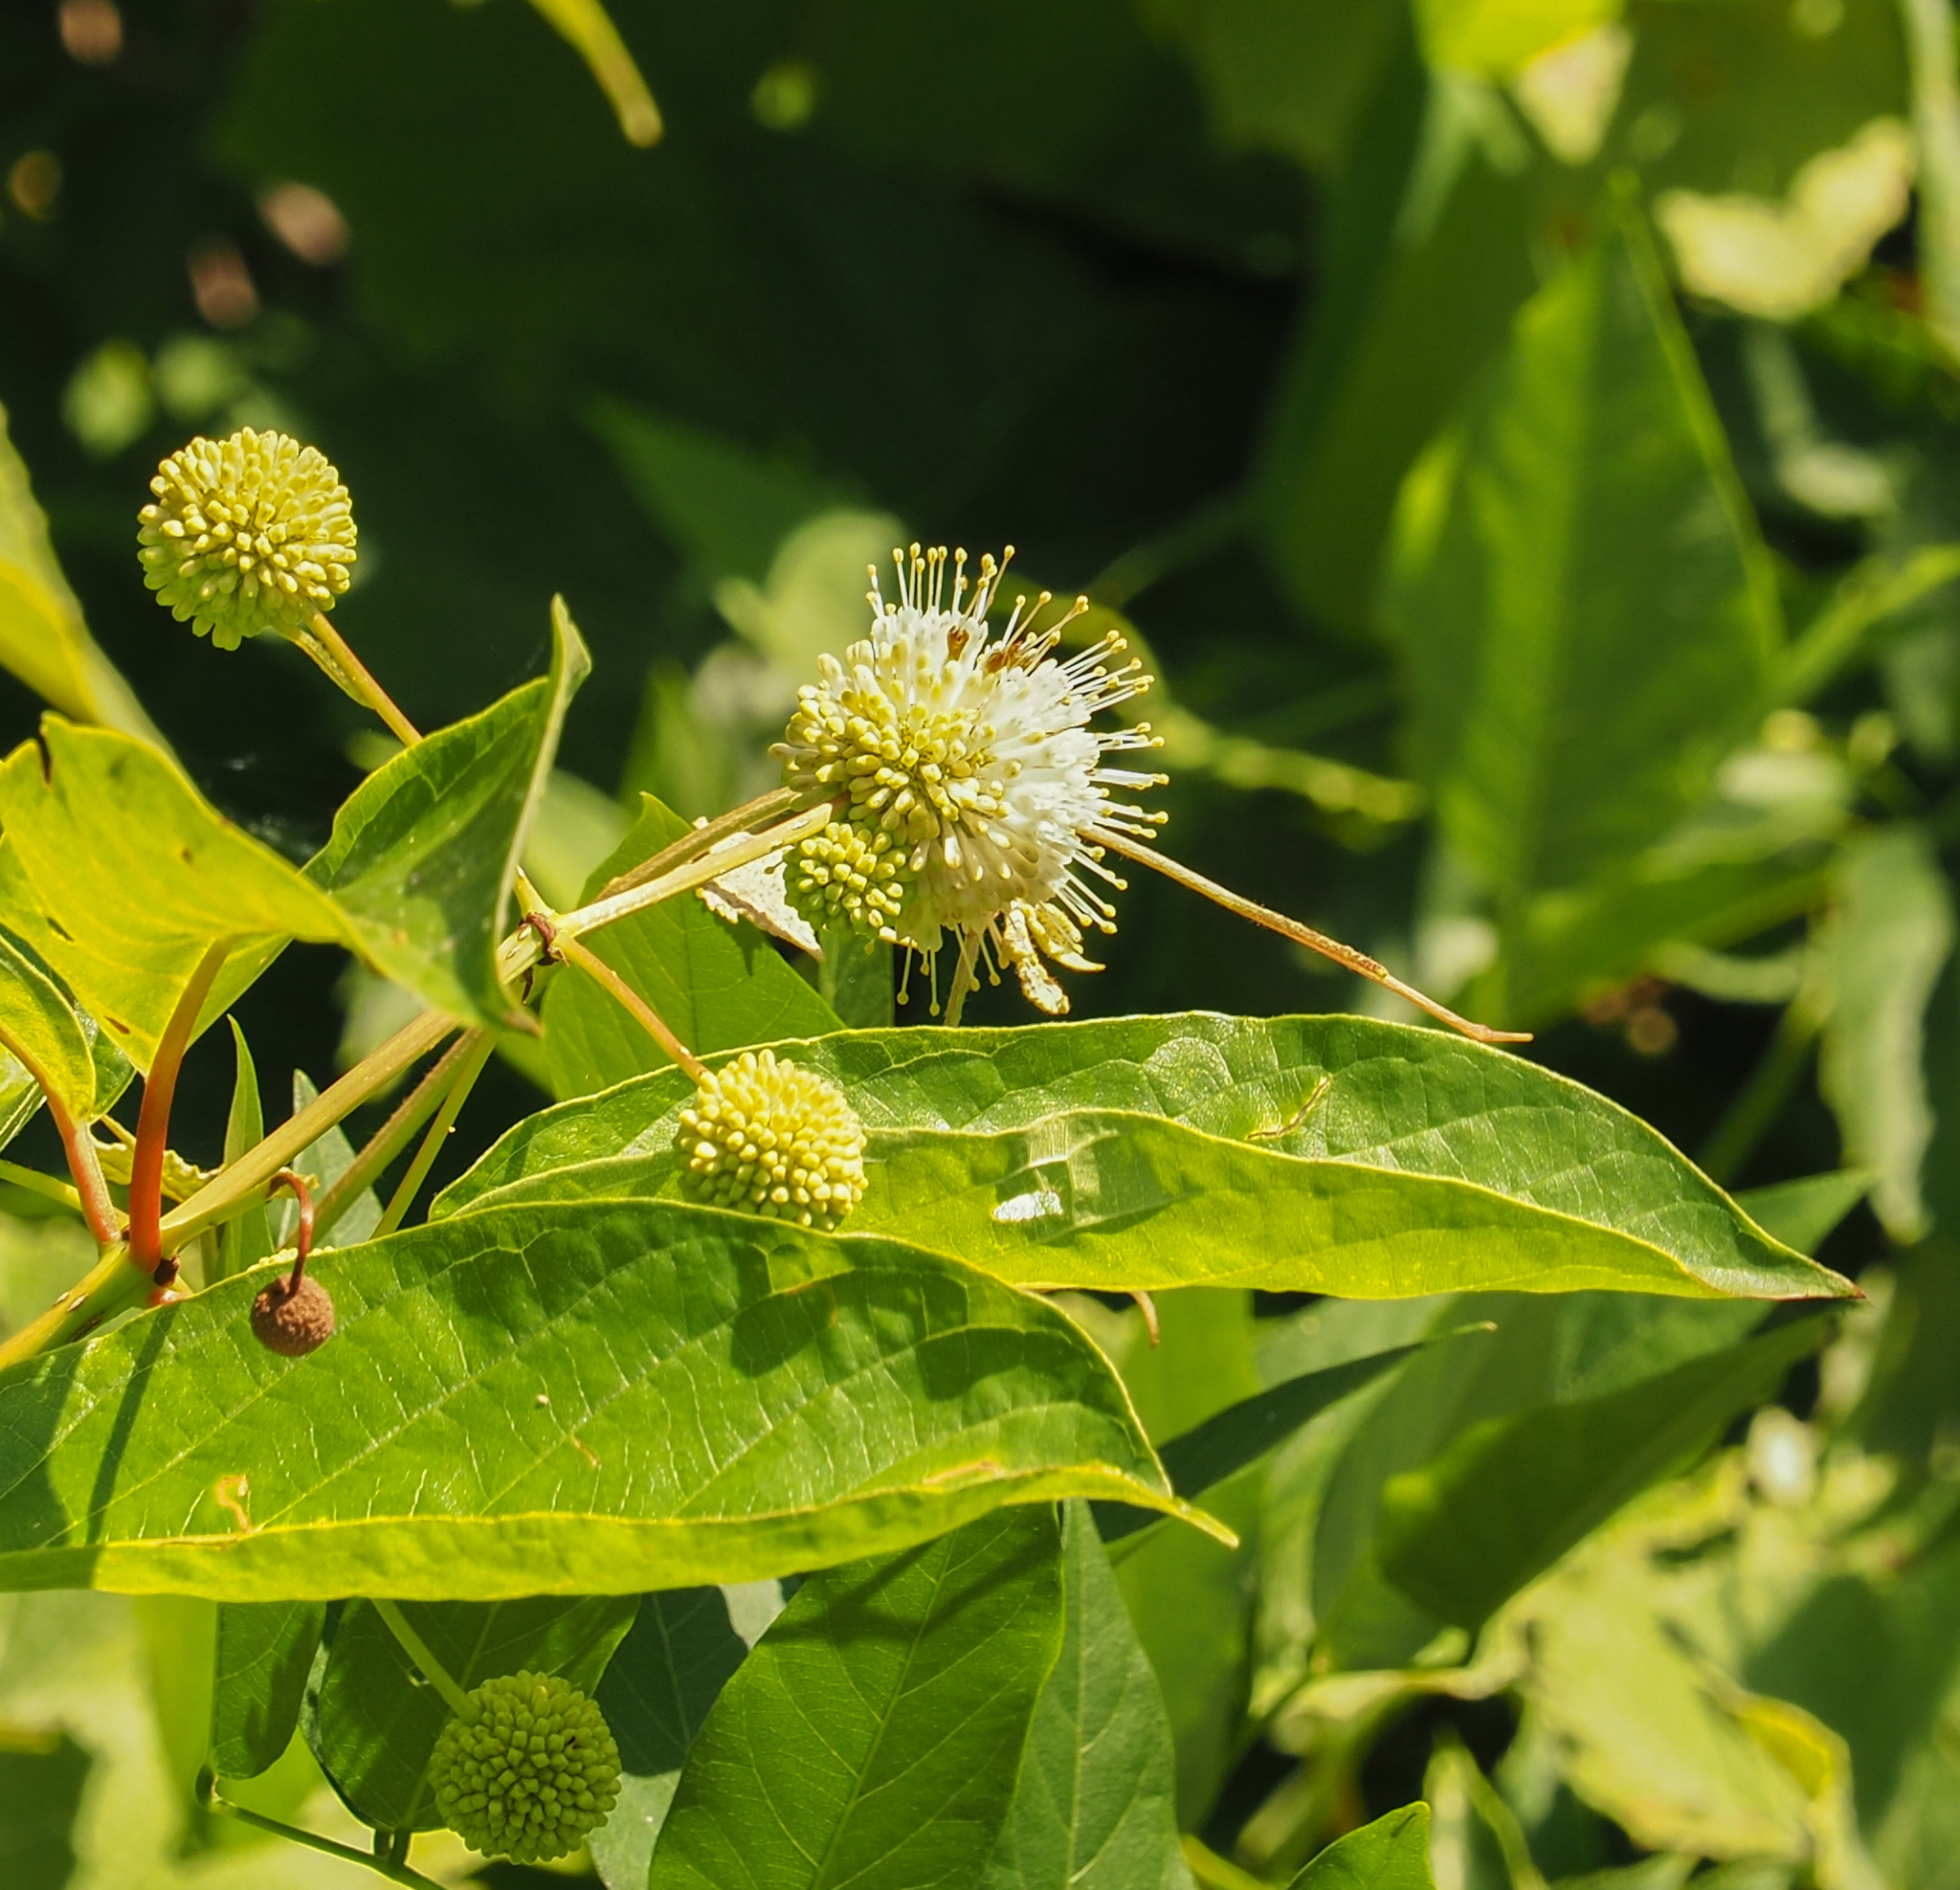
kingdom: Plantae
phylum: Tracheophyta
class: Magnoliopsida
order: Gentianales
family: Rubiaceae
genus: Cephalanthus
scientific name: Cephalanthus occidentalis
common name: Button-willow
